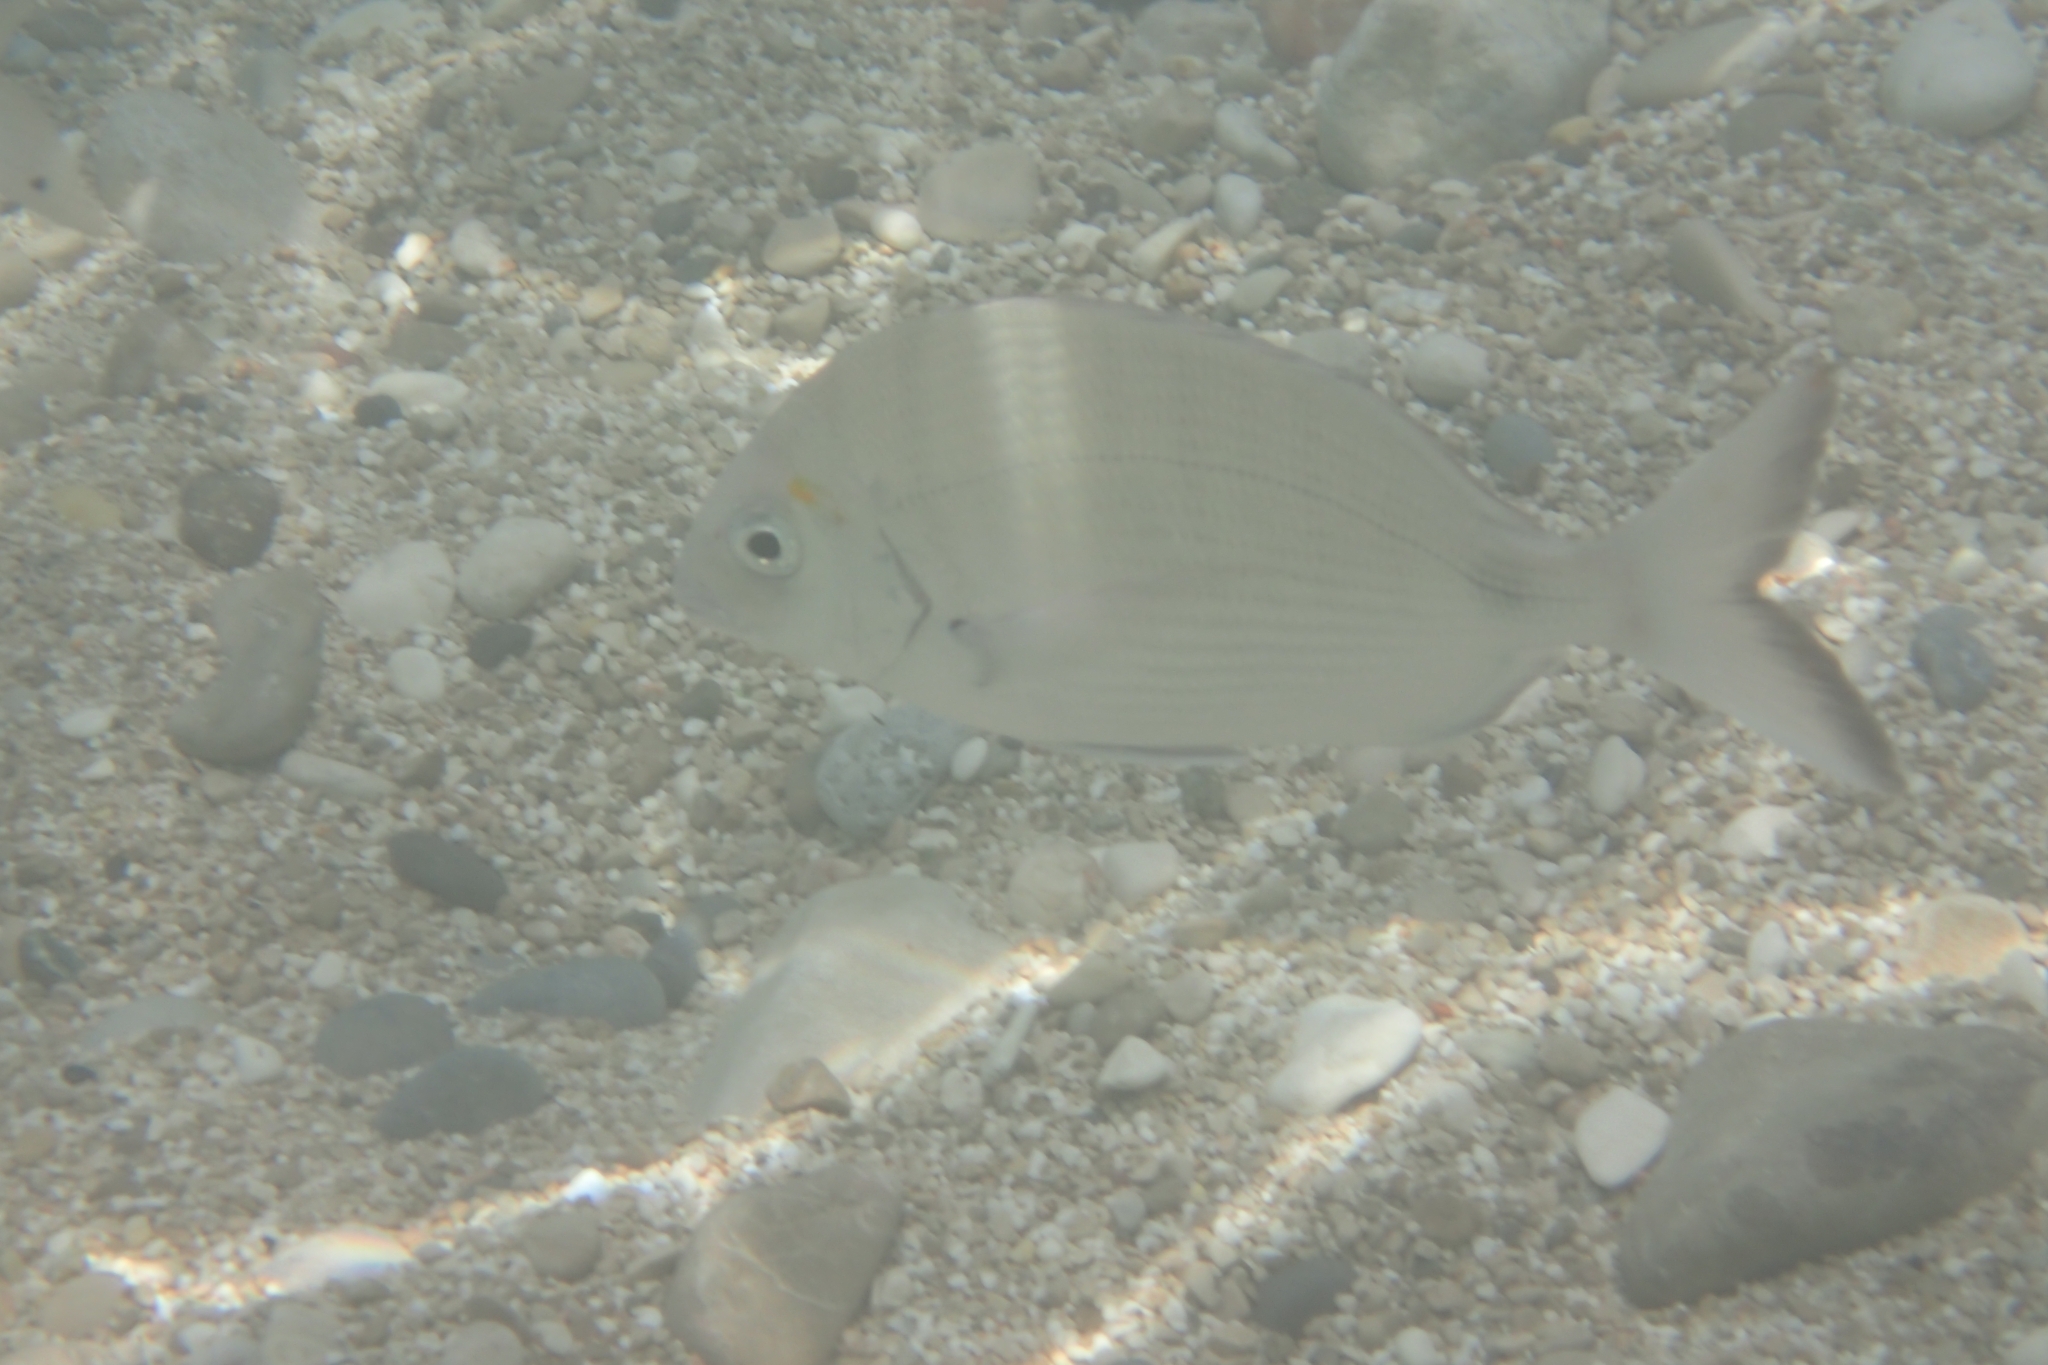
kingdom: Animalia
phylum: Chordata
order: Perciformes
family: Sparidae
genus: Diplodus
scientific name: Diplodus sargus
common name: White seabream
